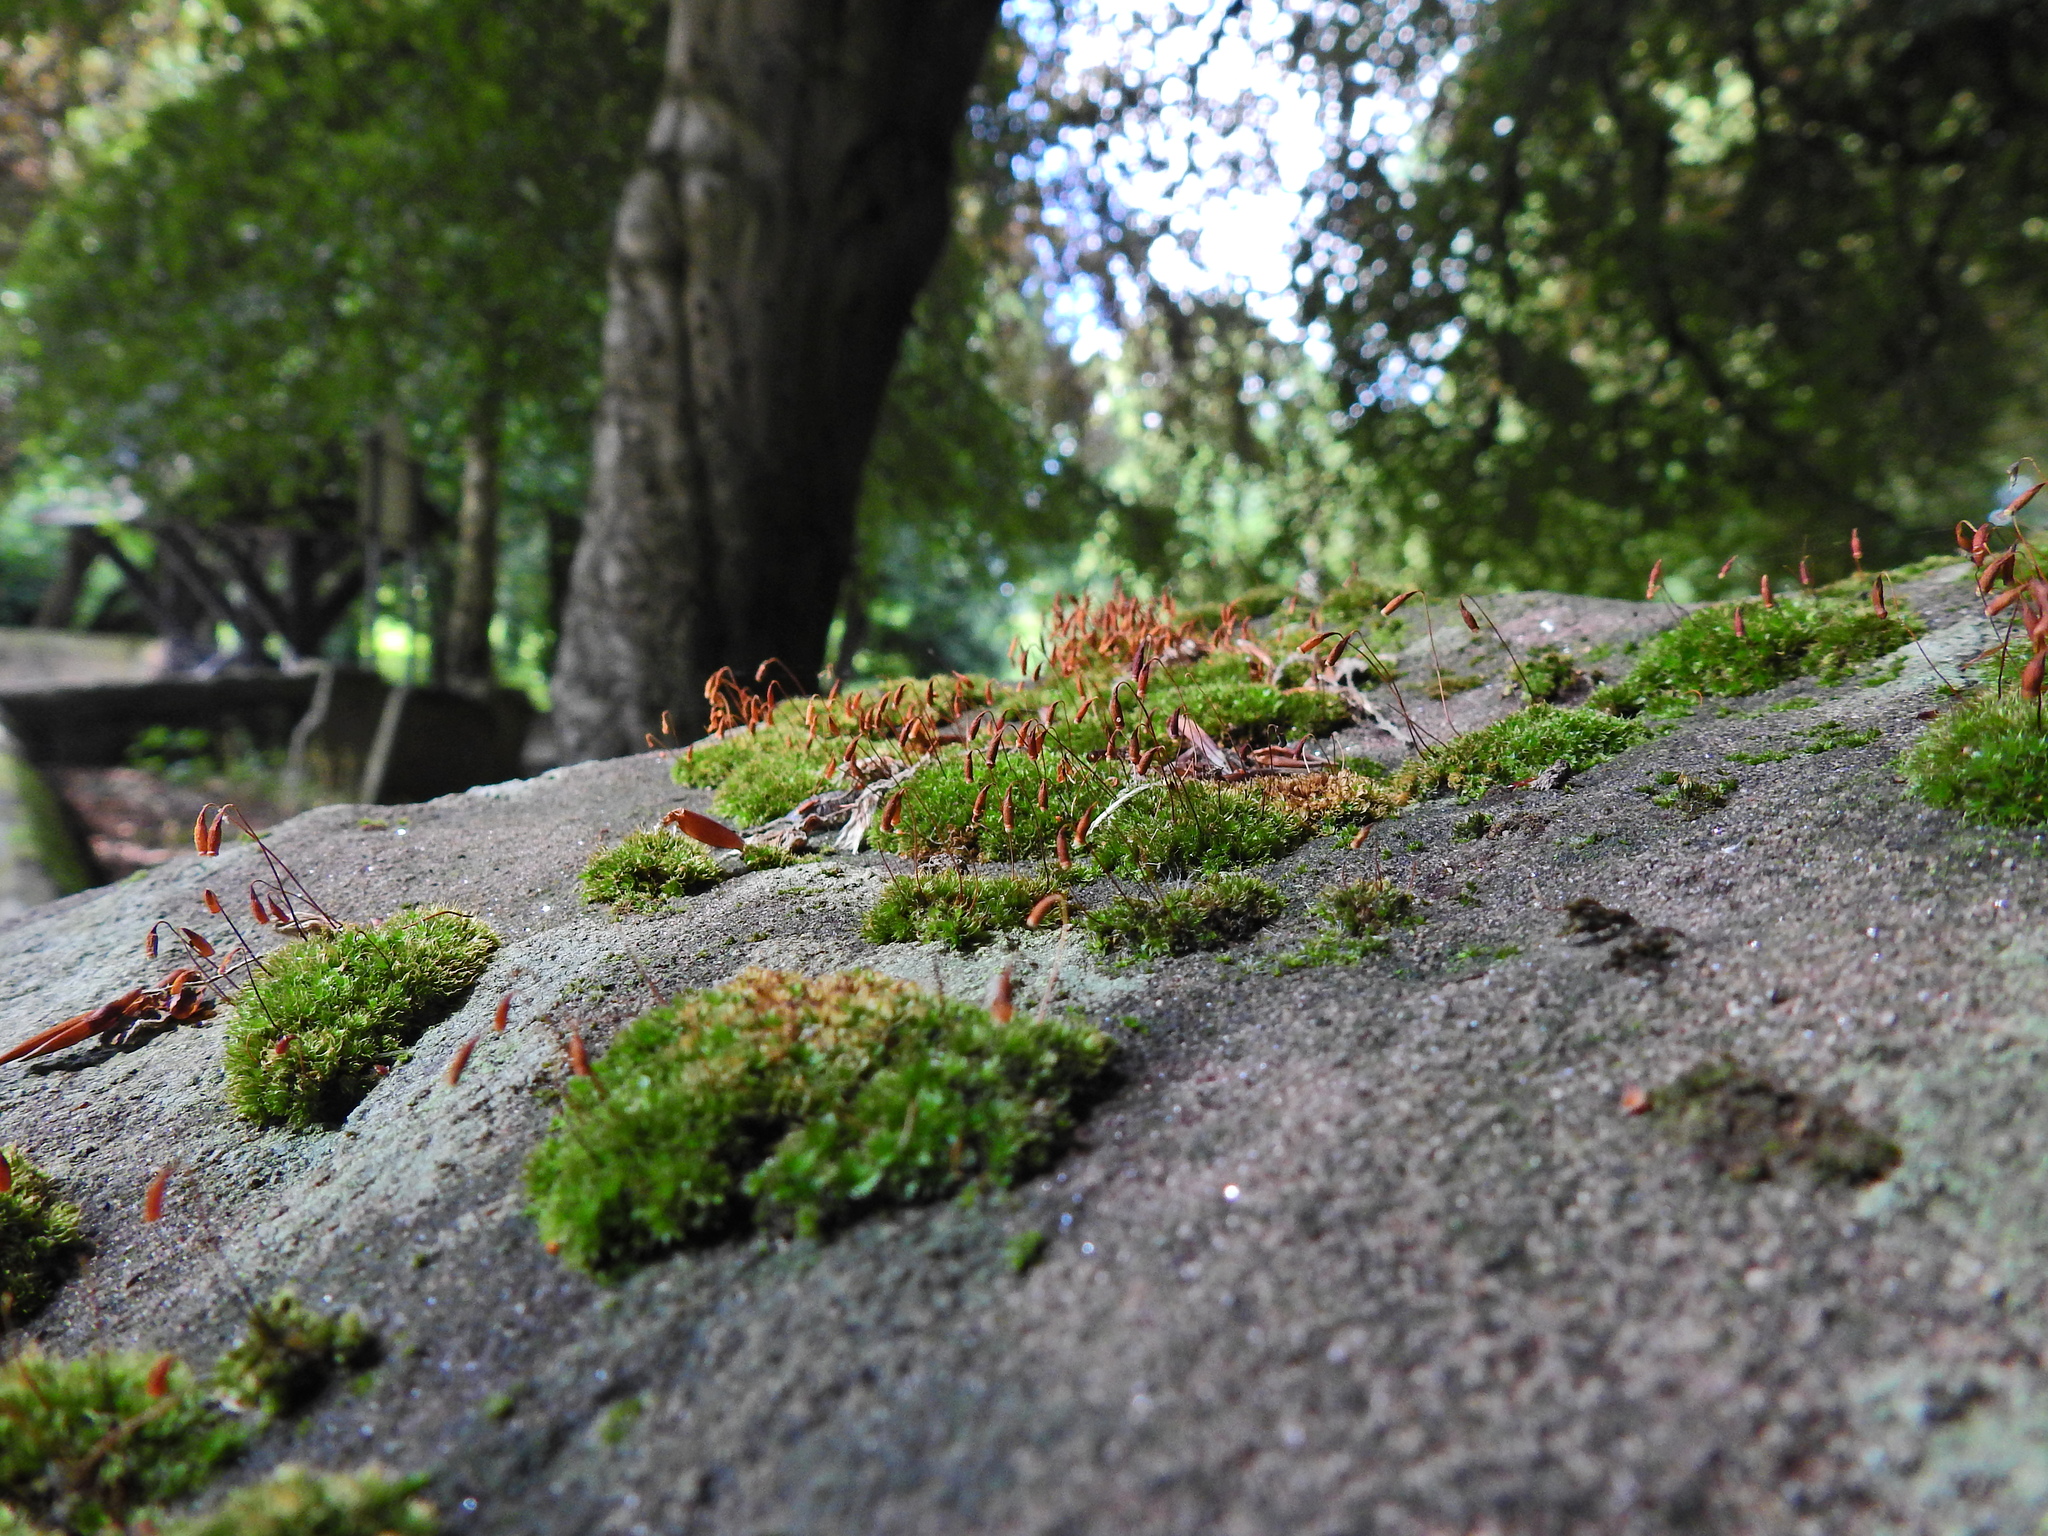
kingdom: Plantae
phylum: Bryophyta
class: Bryopsida
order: Bryales
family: Bryaceae
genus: Rosulabryum
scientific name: Rosulabryum capillare
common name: Capillary thread-moss
